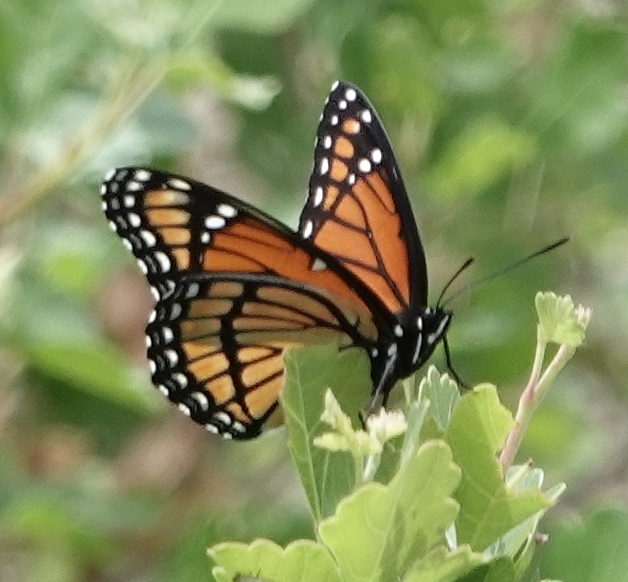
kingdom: Animalia
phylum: Arthropoda
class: Insecta
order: Lepidoptera
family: Nymphalidae
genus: Limenitis
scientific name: Limenitis archippus
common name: Viceroy
